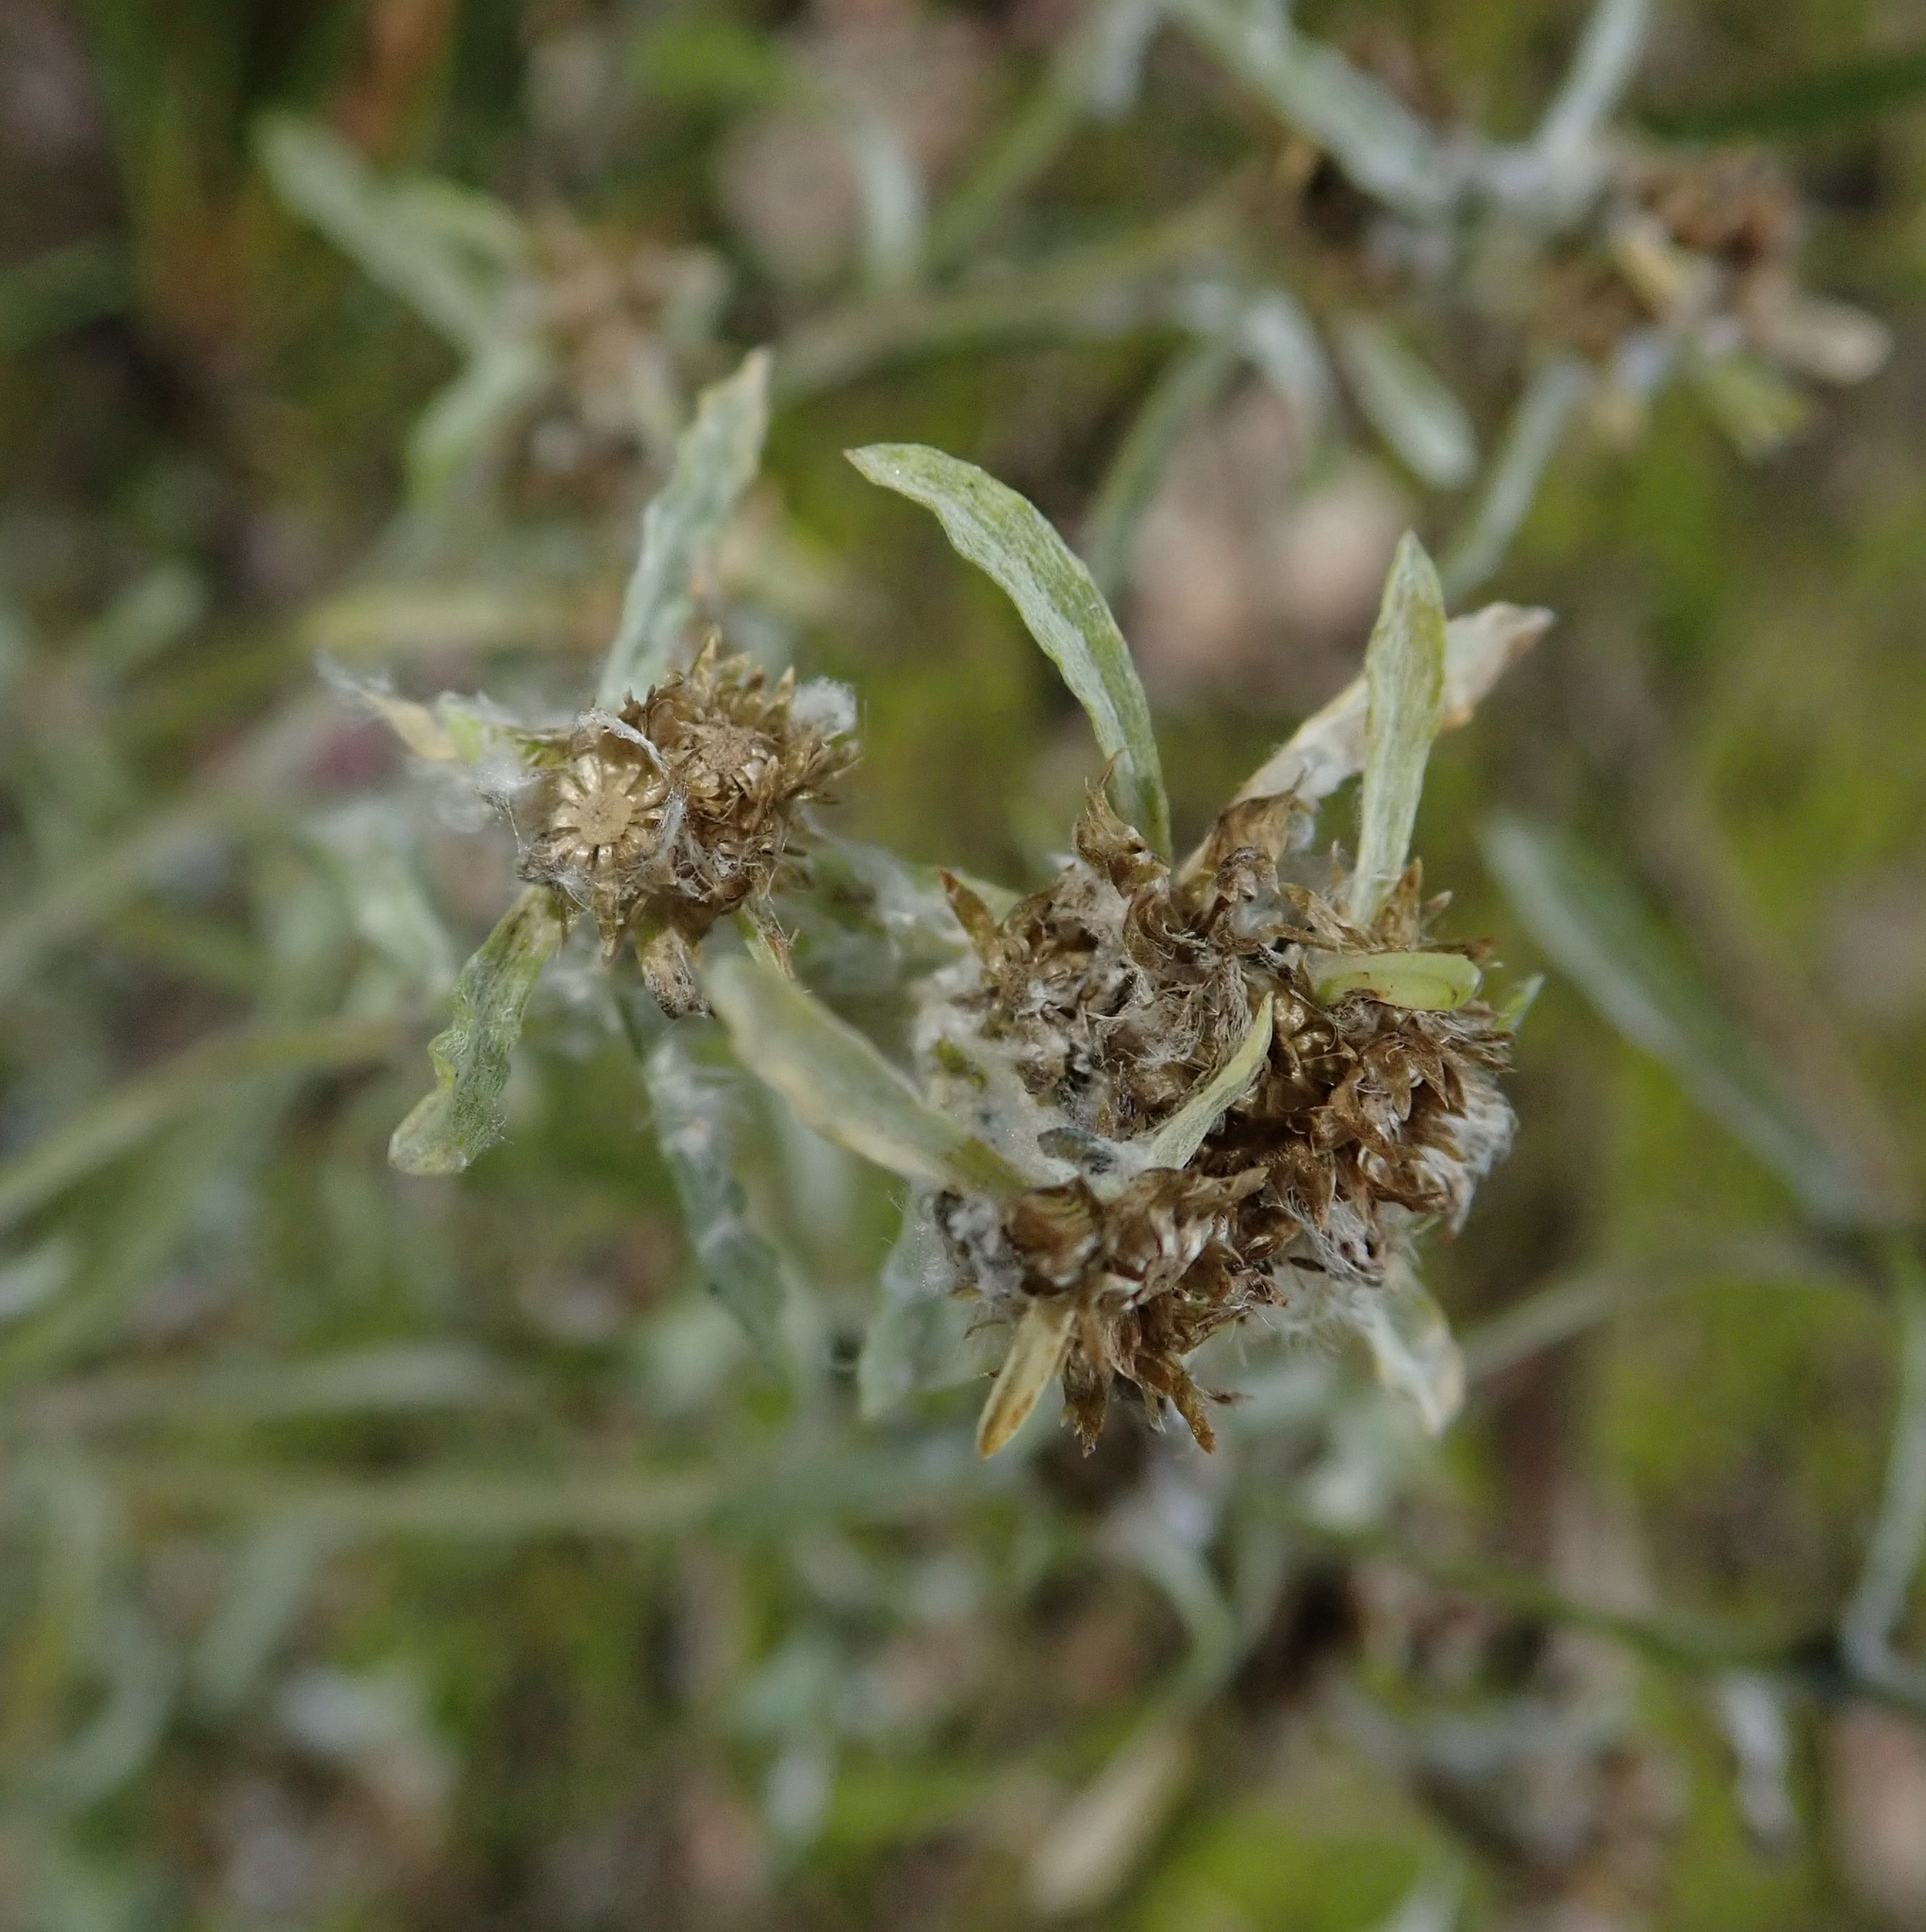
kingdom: Plantae
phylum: Tracheophyta
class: Magnoliopsida
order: Asterales
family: Asteraceae
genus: Gnaphalium
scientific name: Gnaphalium uliginosum
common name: Marsh cudweed
